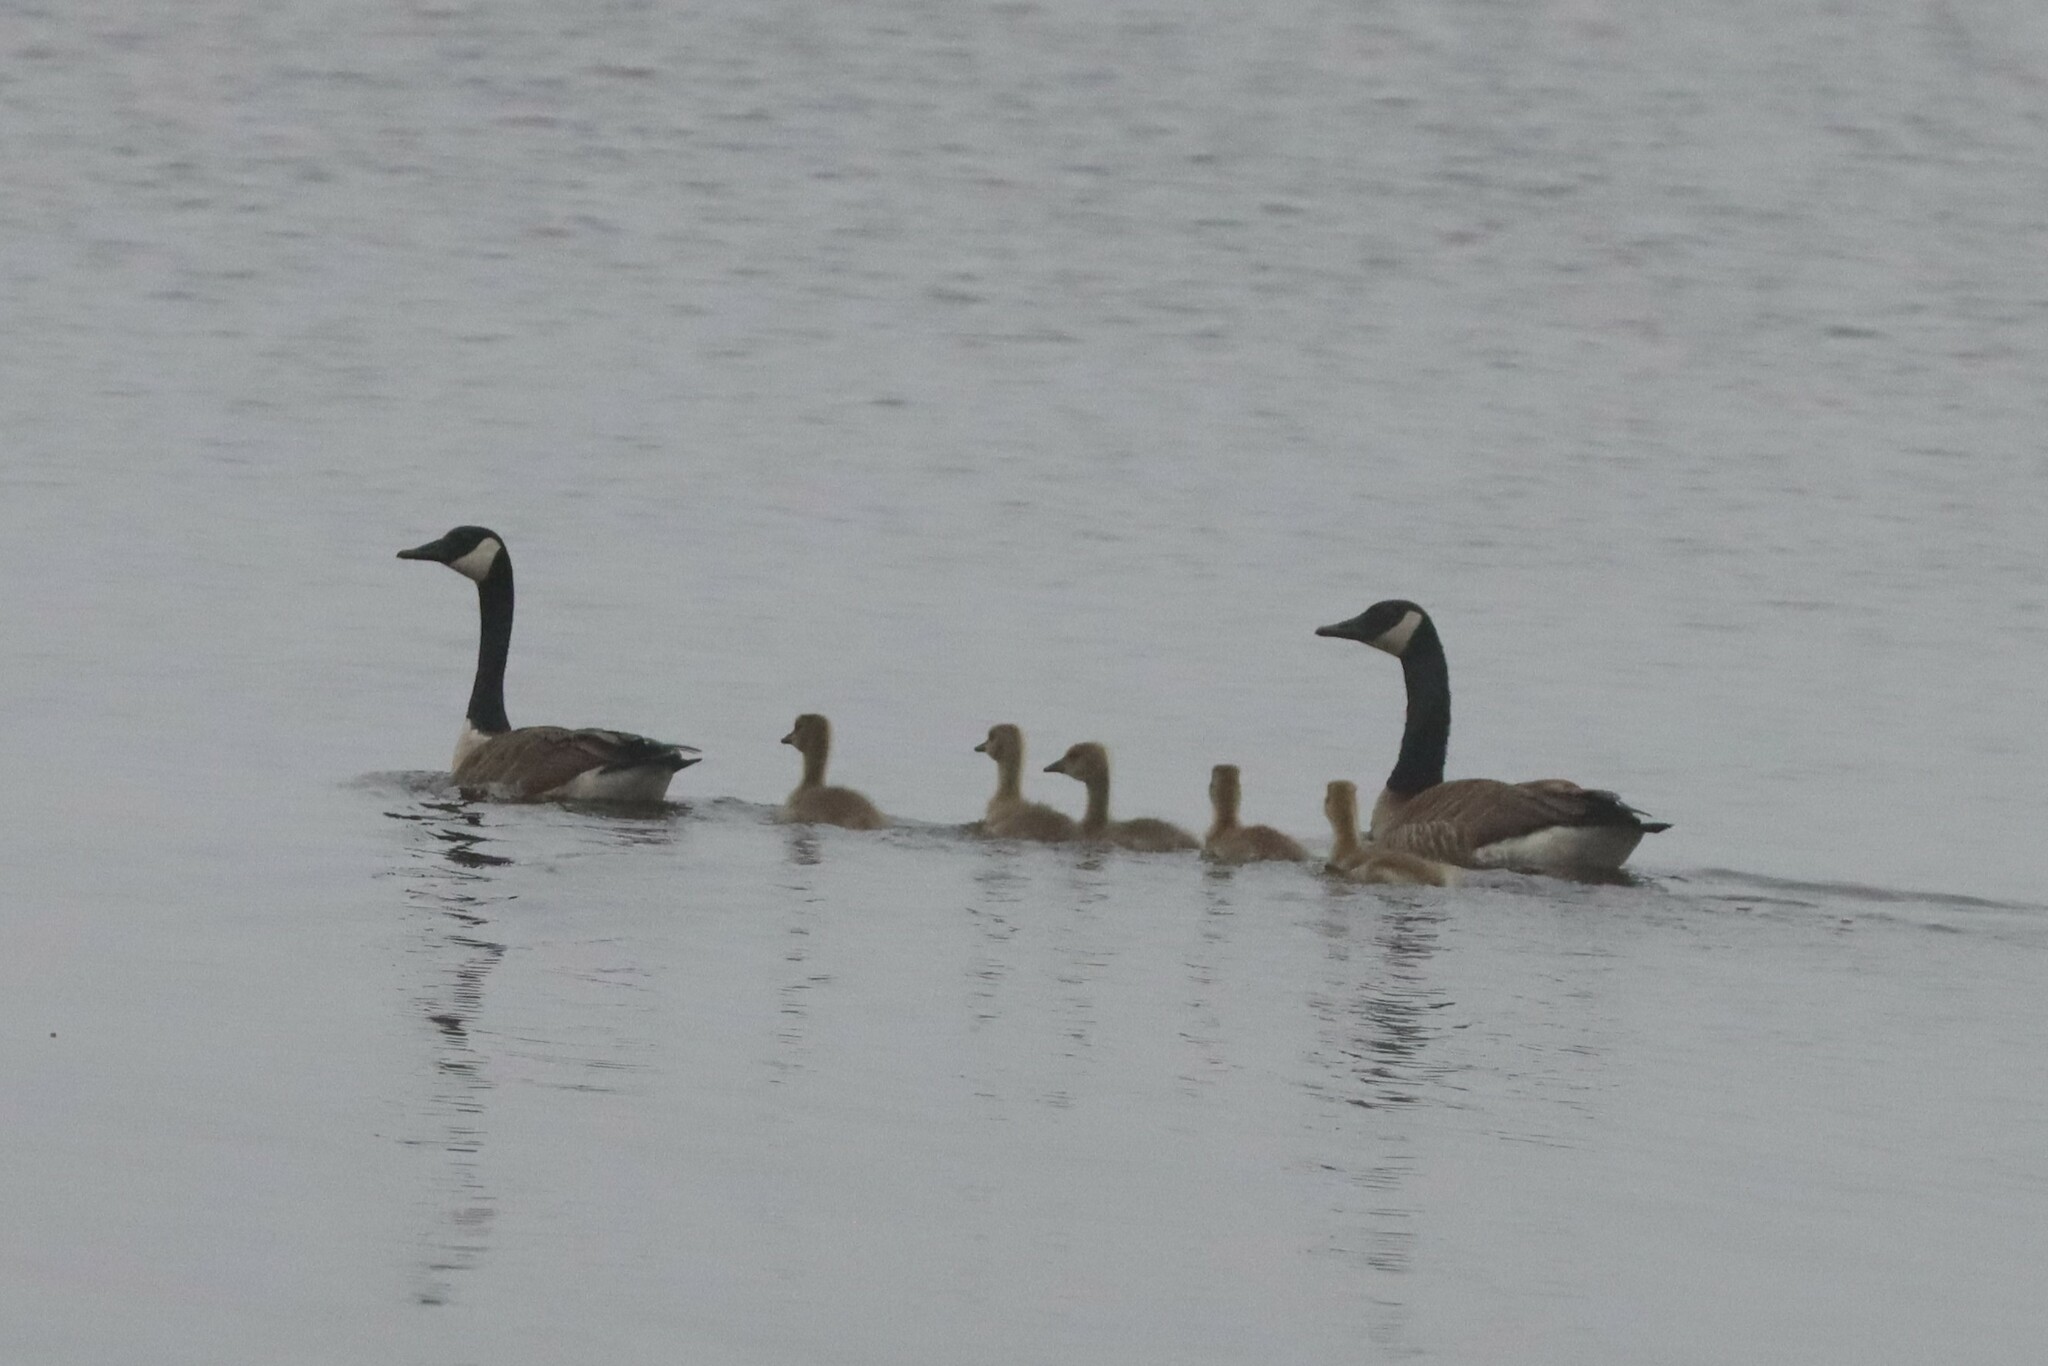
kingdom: Animalia
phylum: Chordata
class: Aves
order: Anseriformes
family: Anatidae
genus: Branta
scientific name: Branta canadensis
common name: Canada goose
